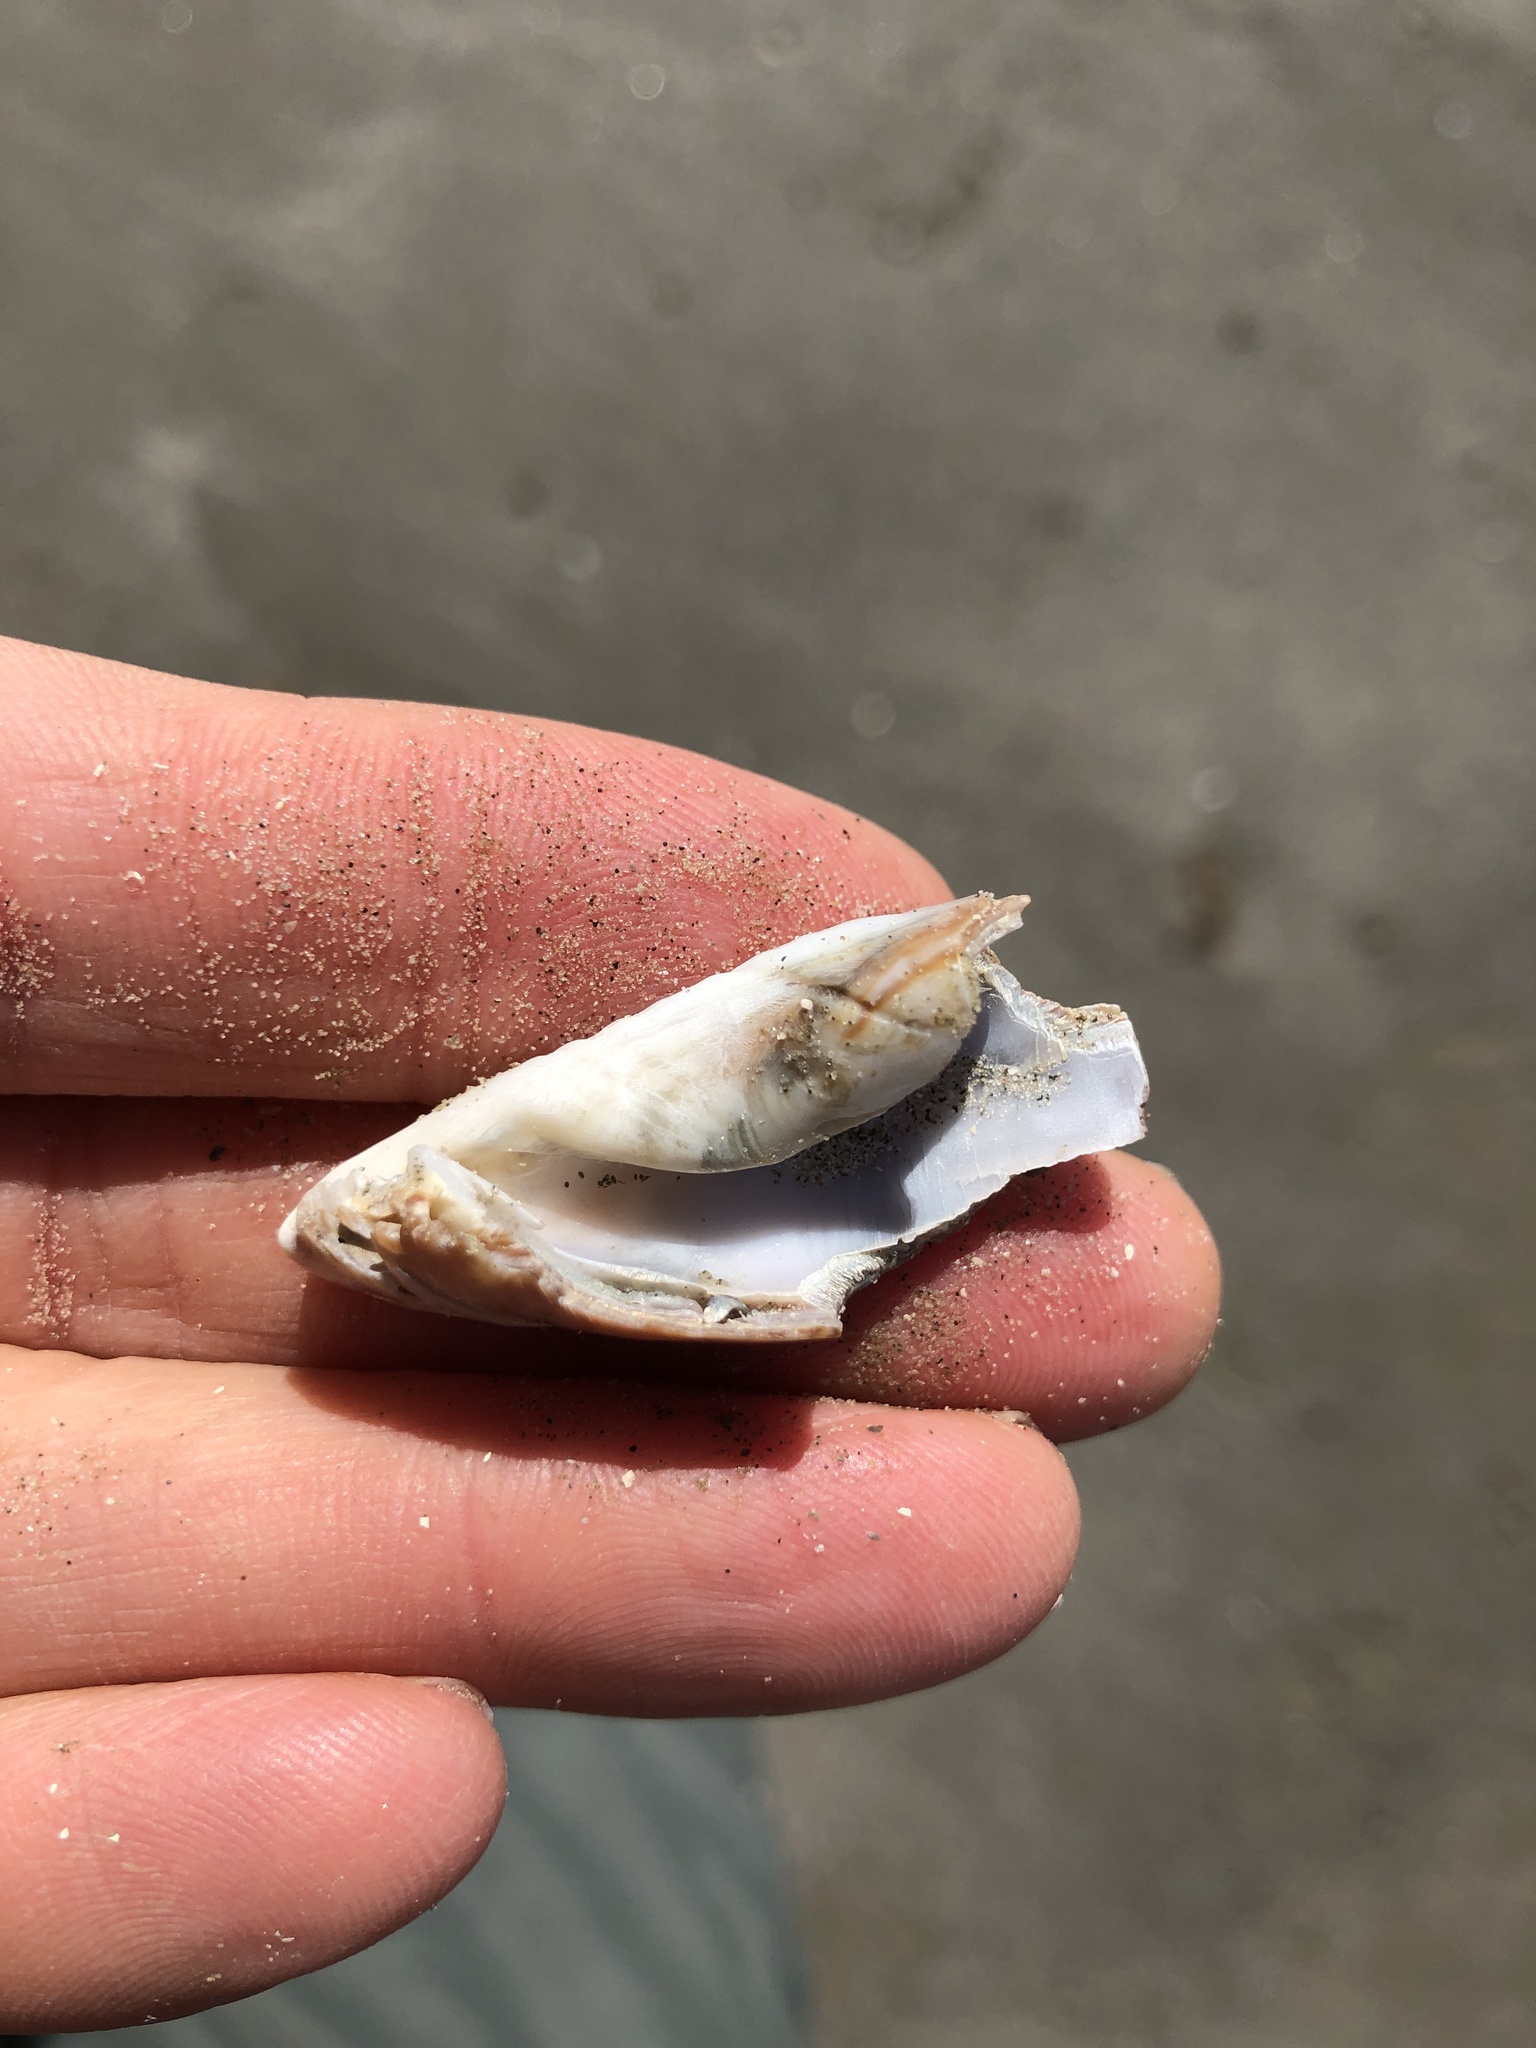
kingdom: Animalia
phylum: Mollusca
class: Gastropoda
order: Neogastropoda
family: Olividae
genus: Oliva
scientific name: Oliva sayana
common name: Lettered olive
